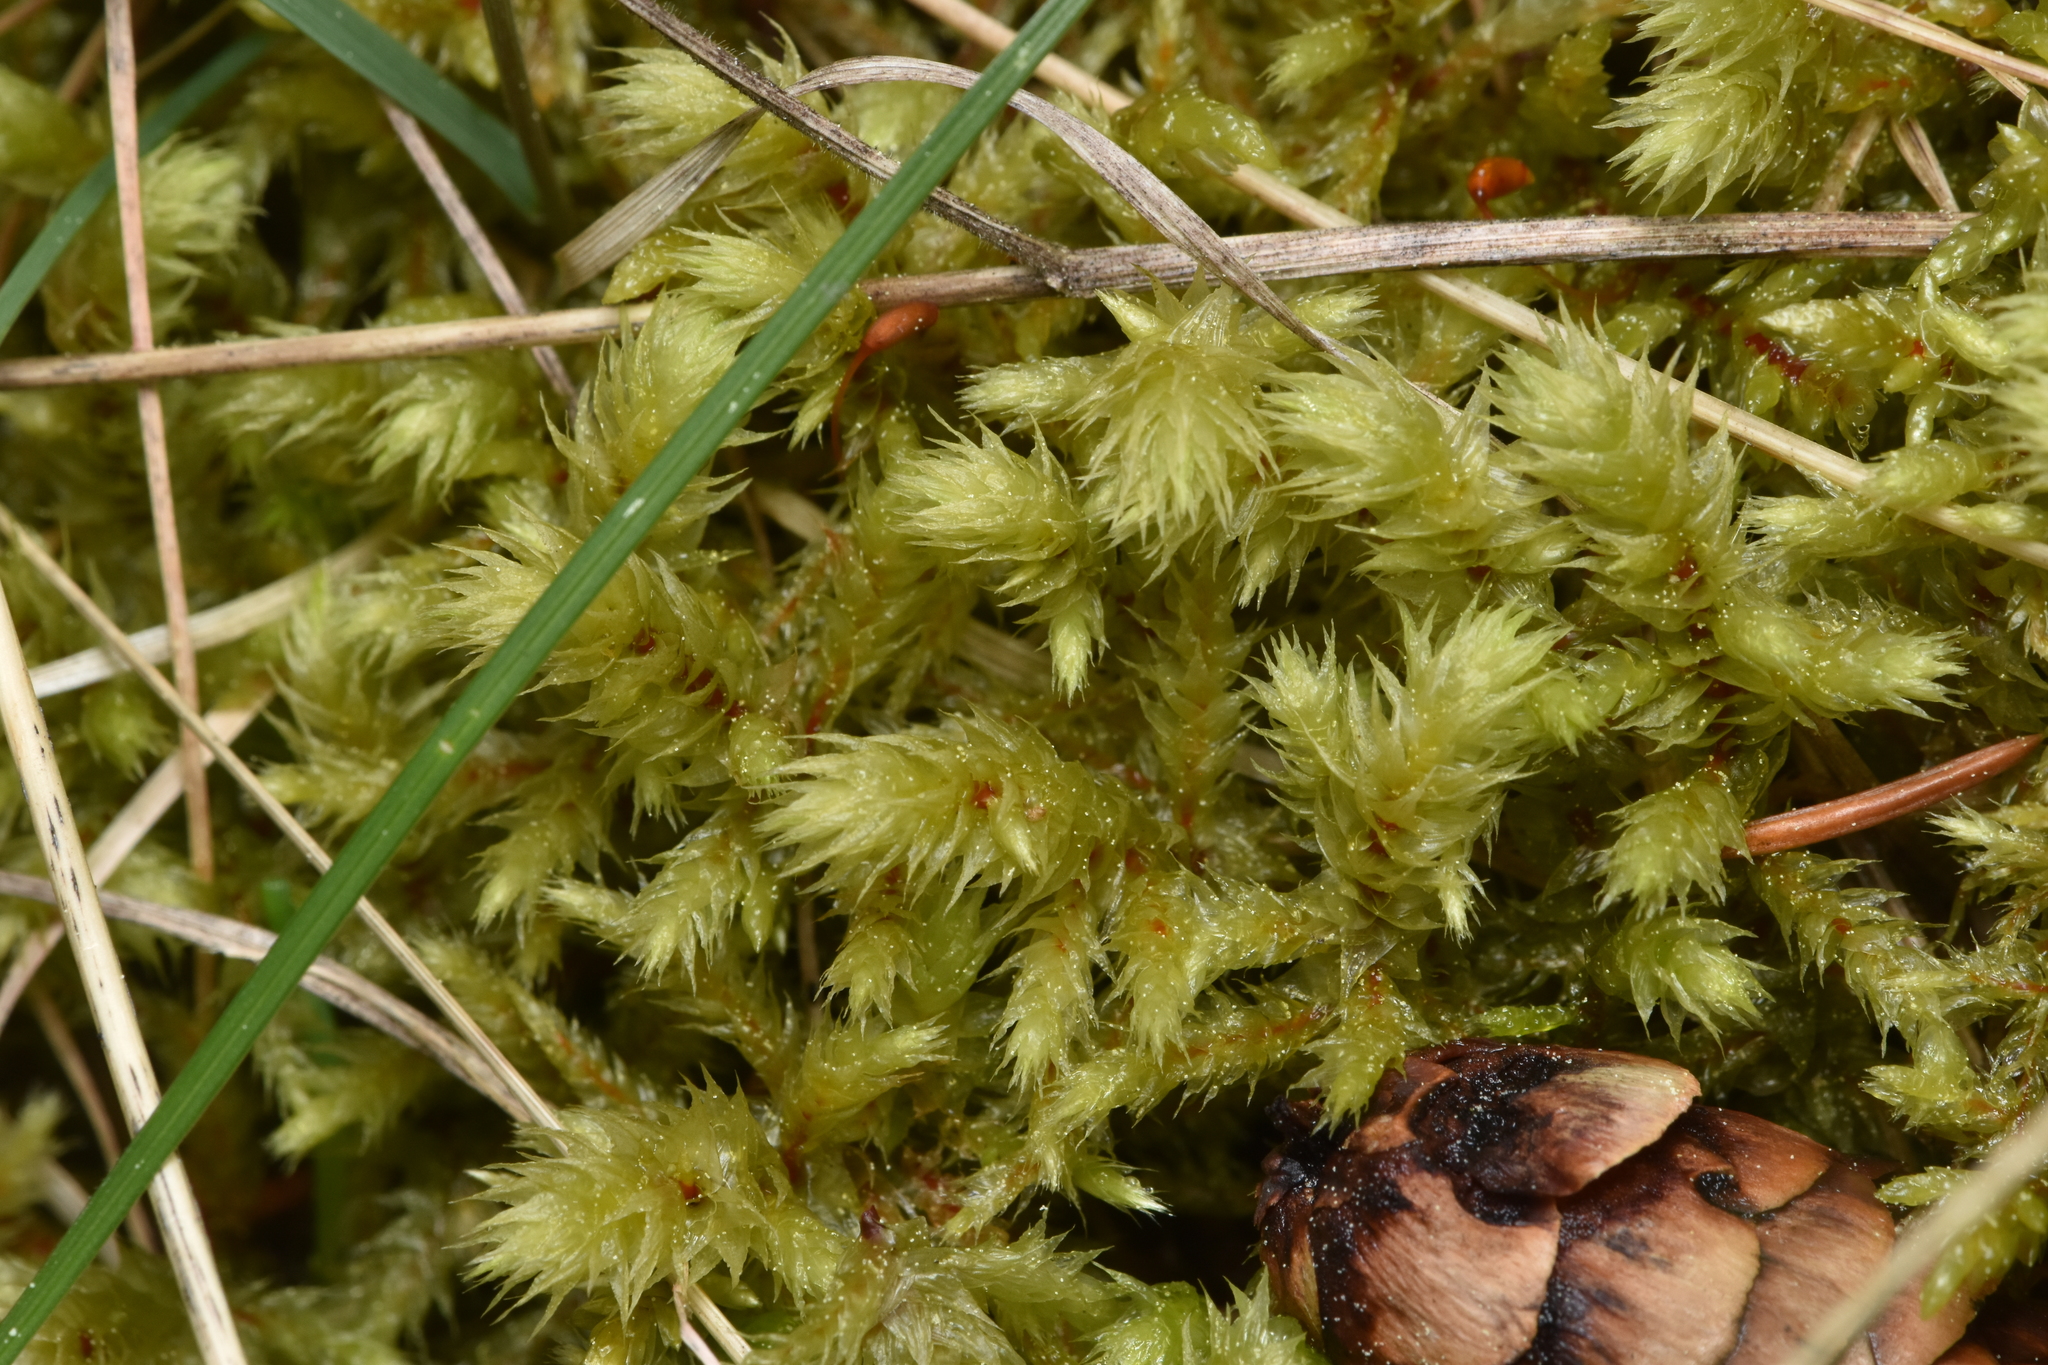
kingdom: Plantae
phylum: Bryophyta
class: Bryopsida
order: Hypnales
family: Hylocomiaceae
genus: Hylocomiadelphus
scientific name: Hylocomiadelphus triquetrus
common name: Rough goose neck moss
